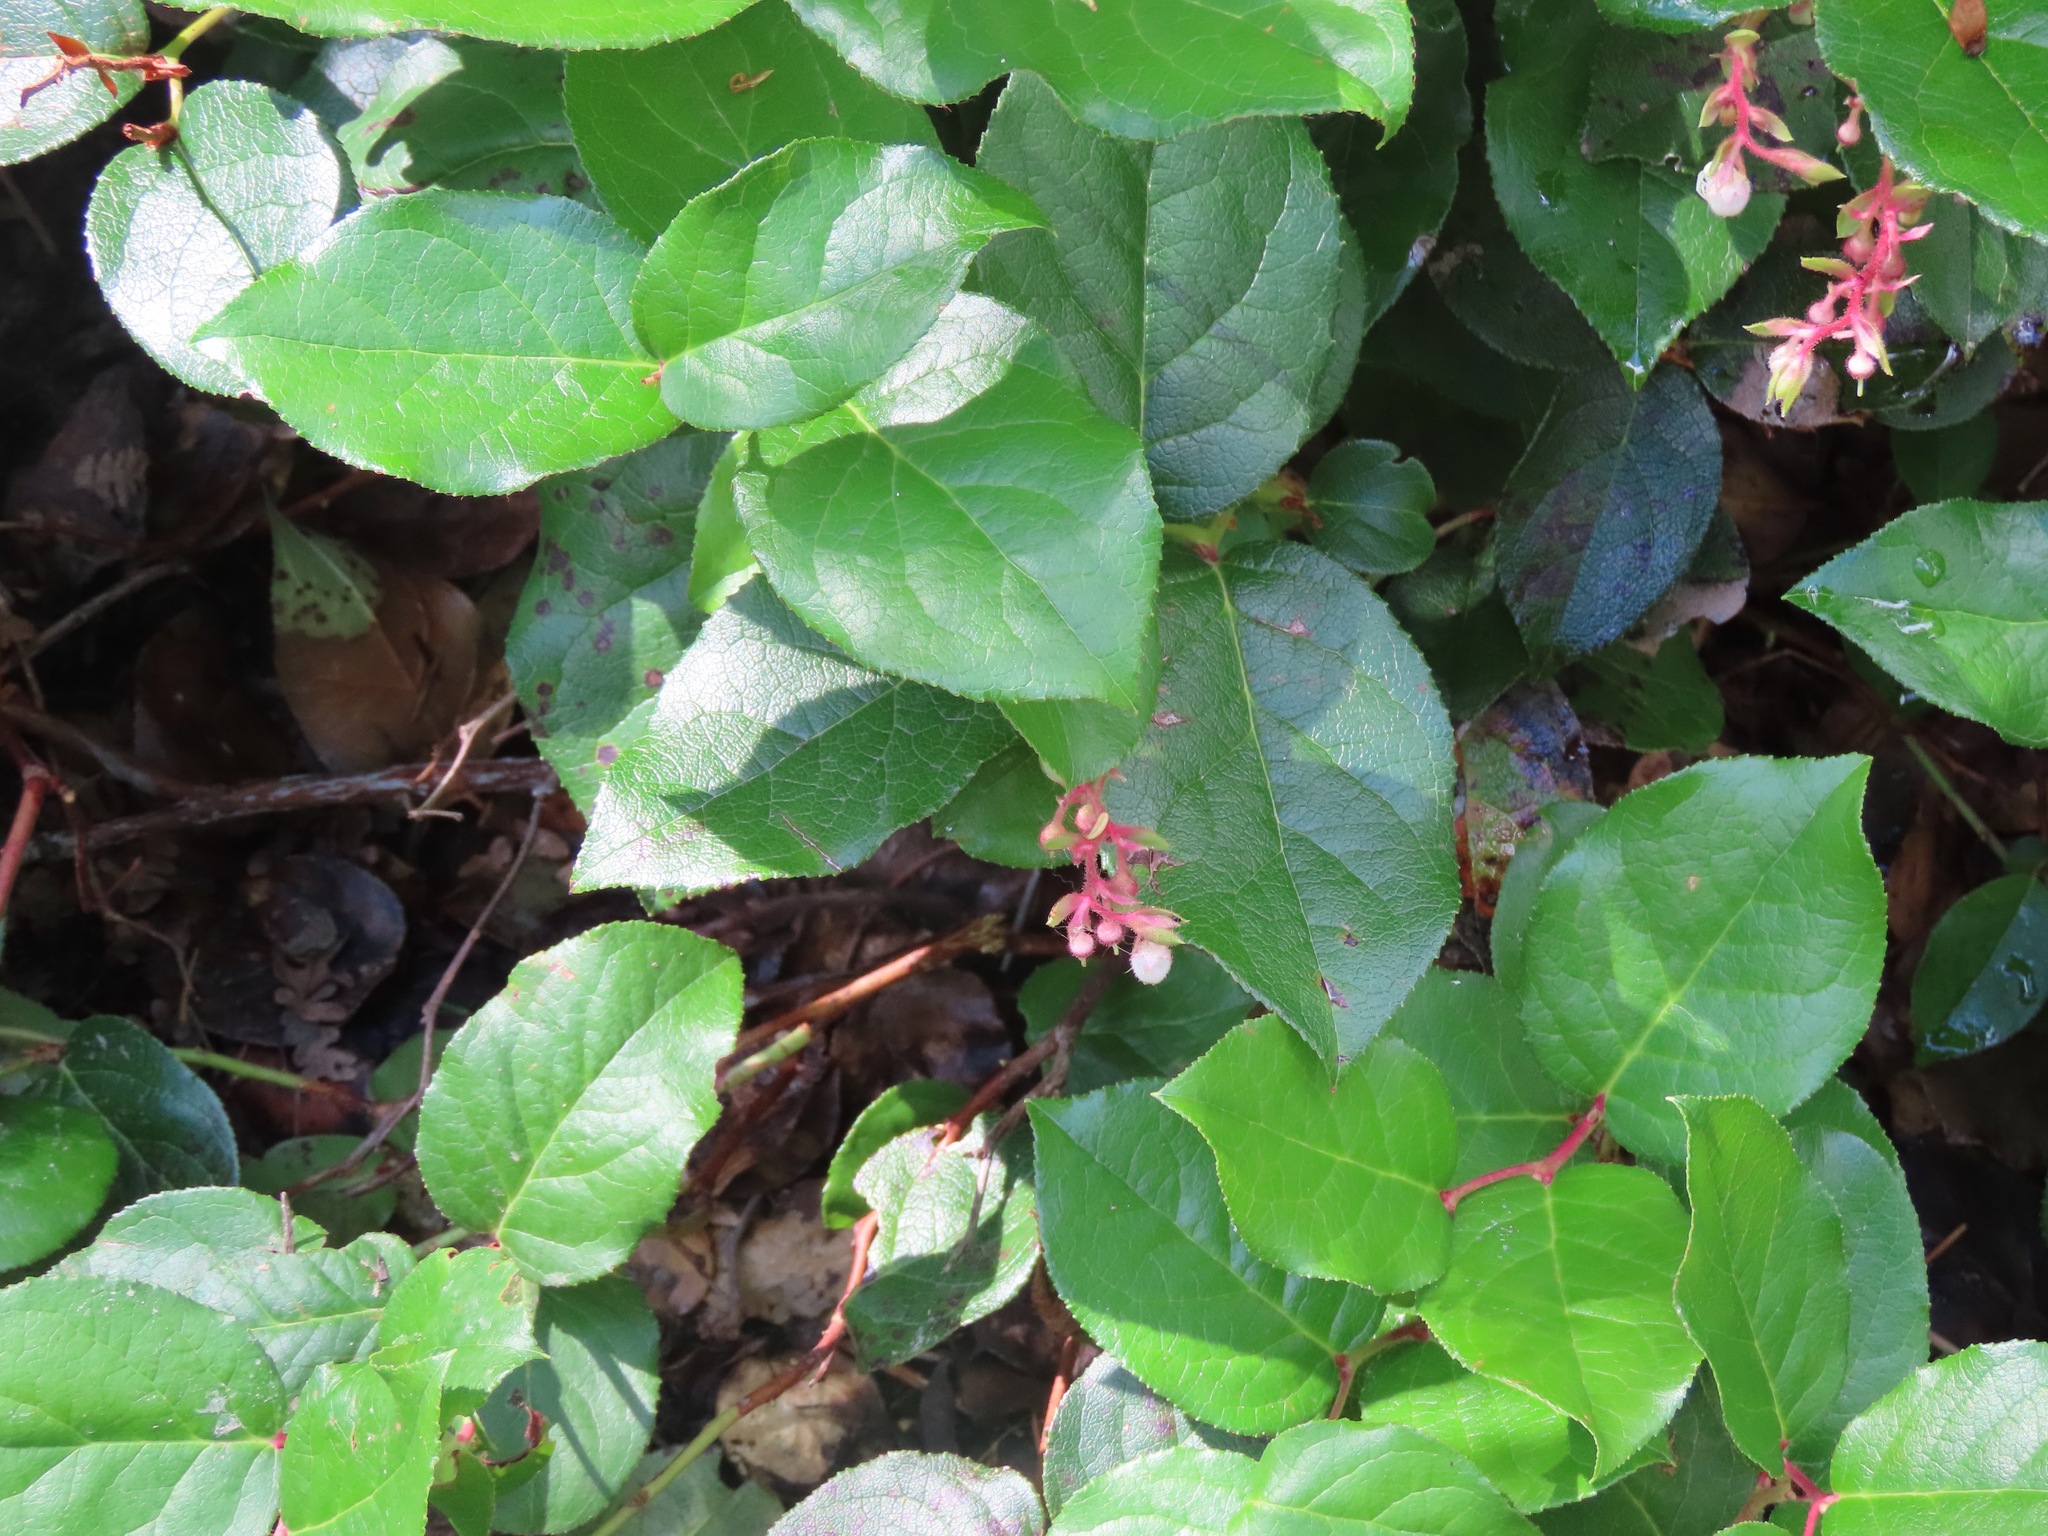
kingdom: Plantae
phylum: Tracheophyta
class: Magnoliopsida
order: Ericales
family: Ericaceae
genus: Gaultheria
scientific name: Gaultheria shallon
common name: Shallon
